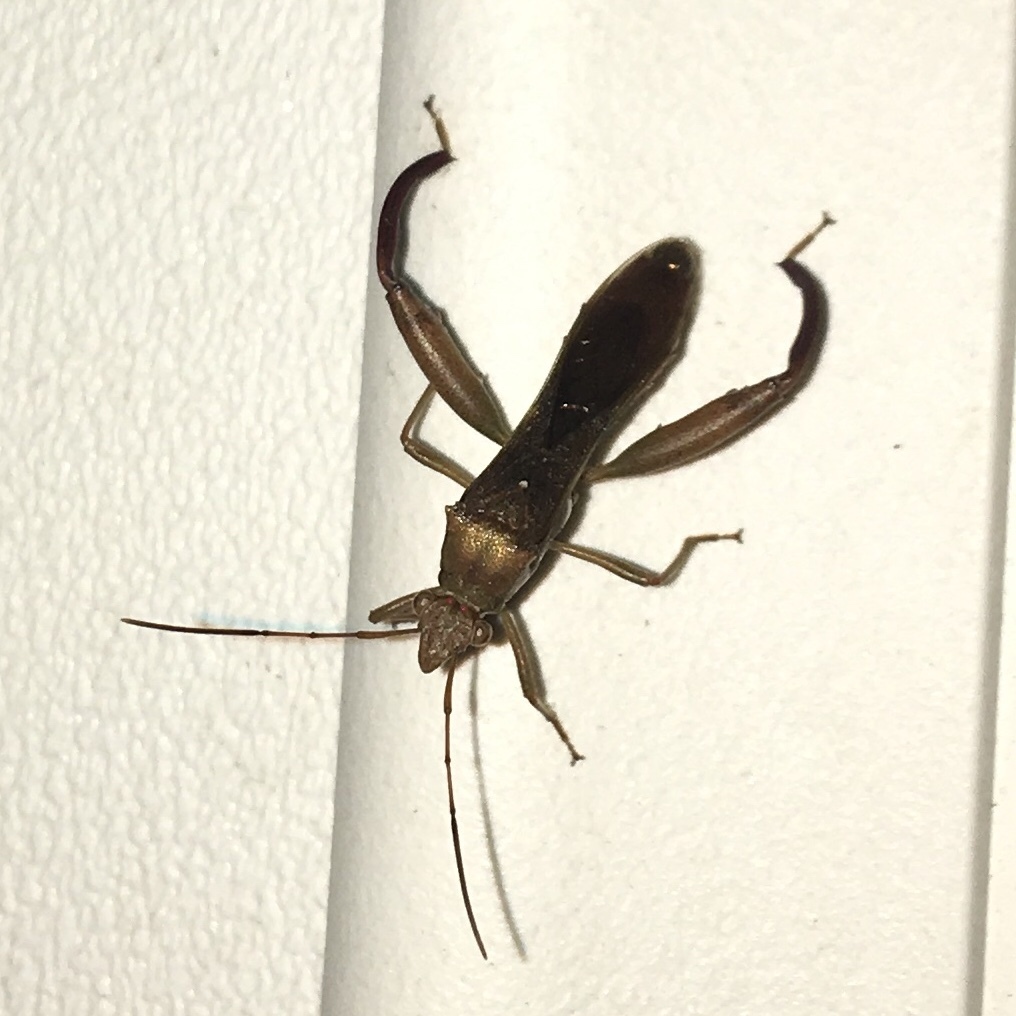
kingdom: Animalia
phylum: Arthropoda
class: Insecta
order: Hemiptera
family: Alydidae
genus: Hyalymenus
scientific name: Hyalymenus tarsatus
